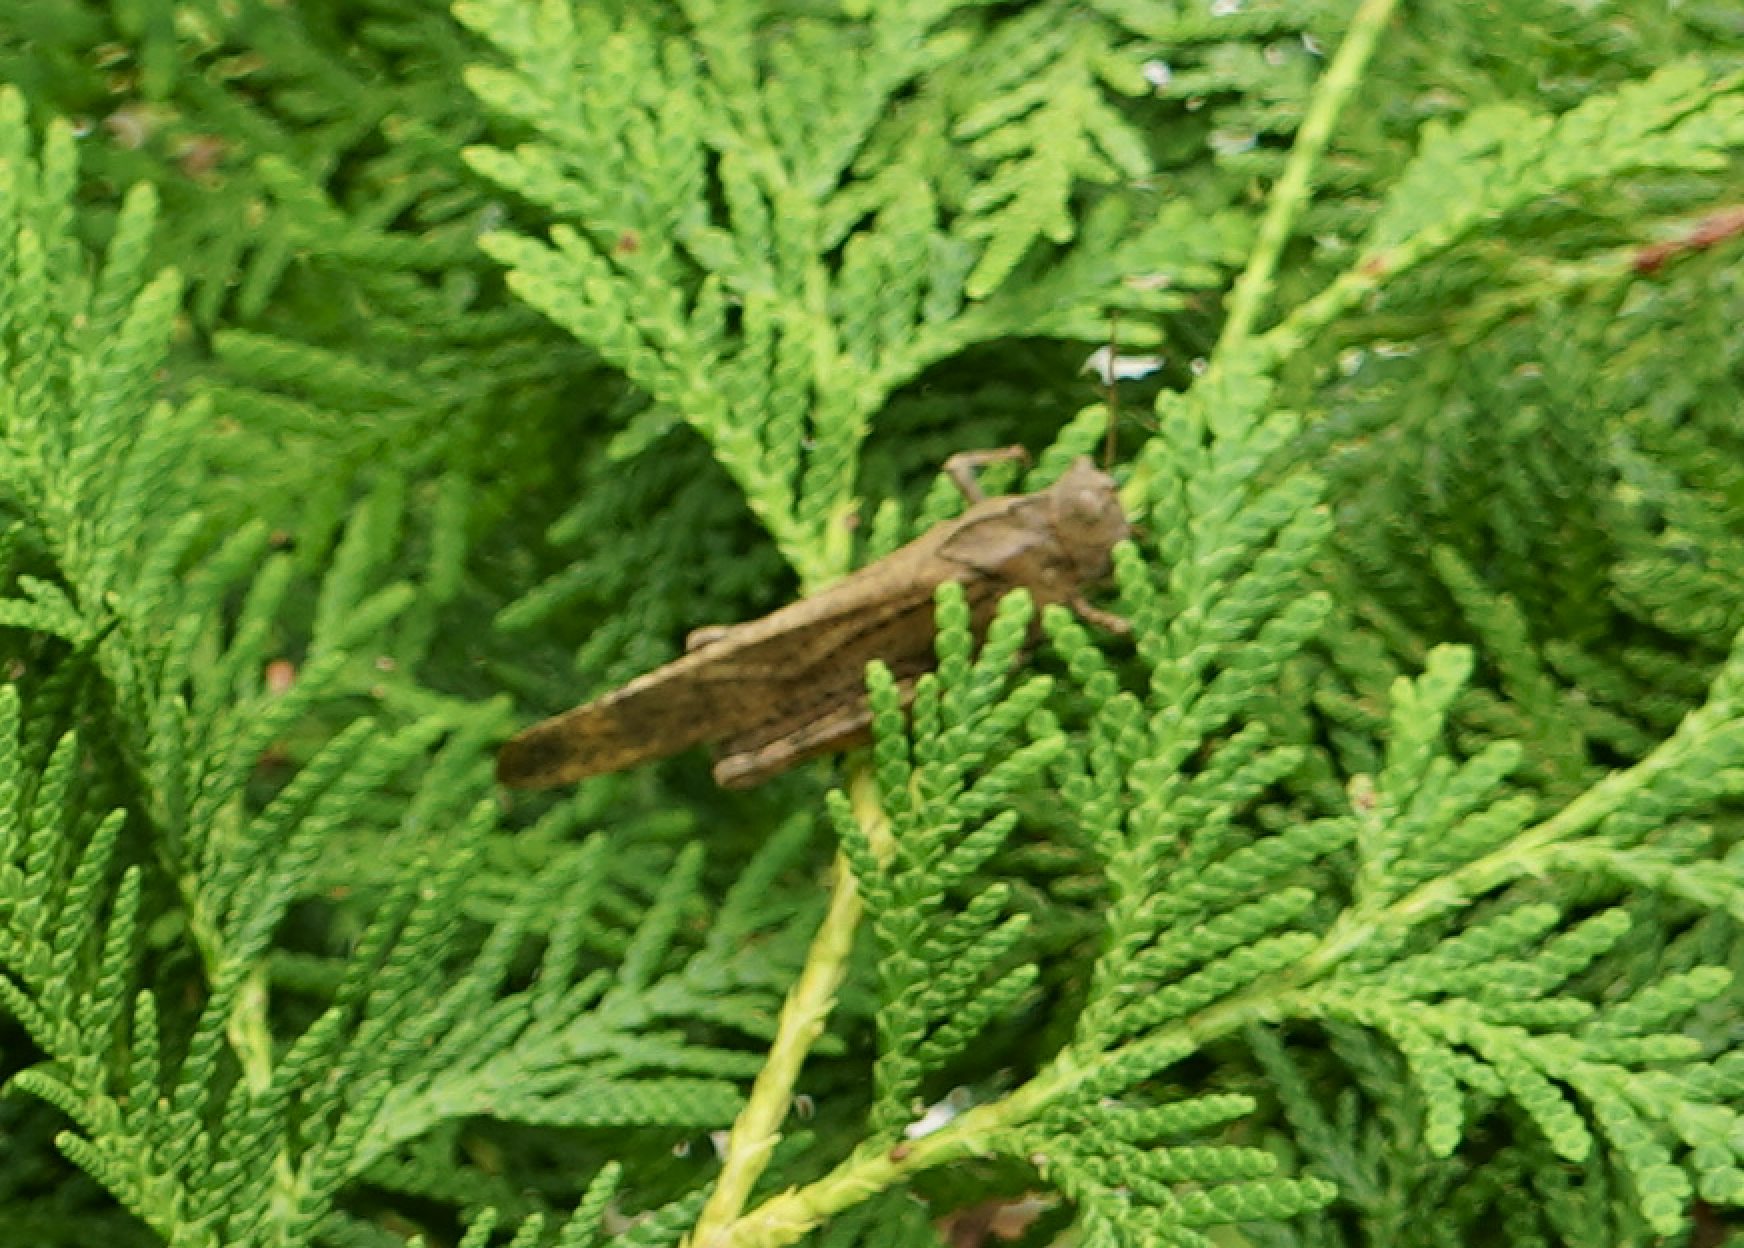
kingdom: Animalia
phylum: Arthropoda
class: Insecta
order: Orthoptera
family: Acrididae
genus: Dissosteira
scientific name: Dissosteira carolina
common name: Carolina grasshopper
